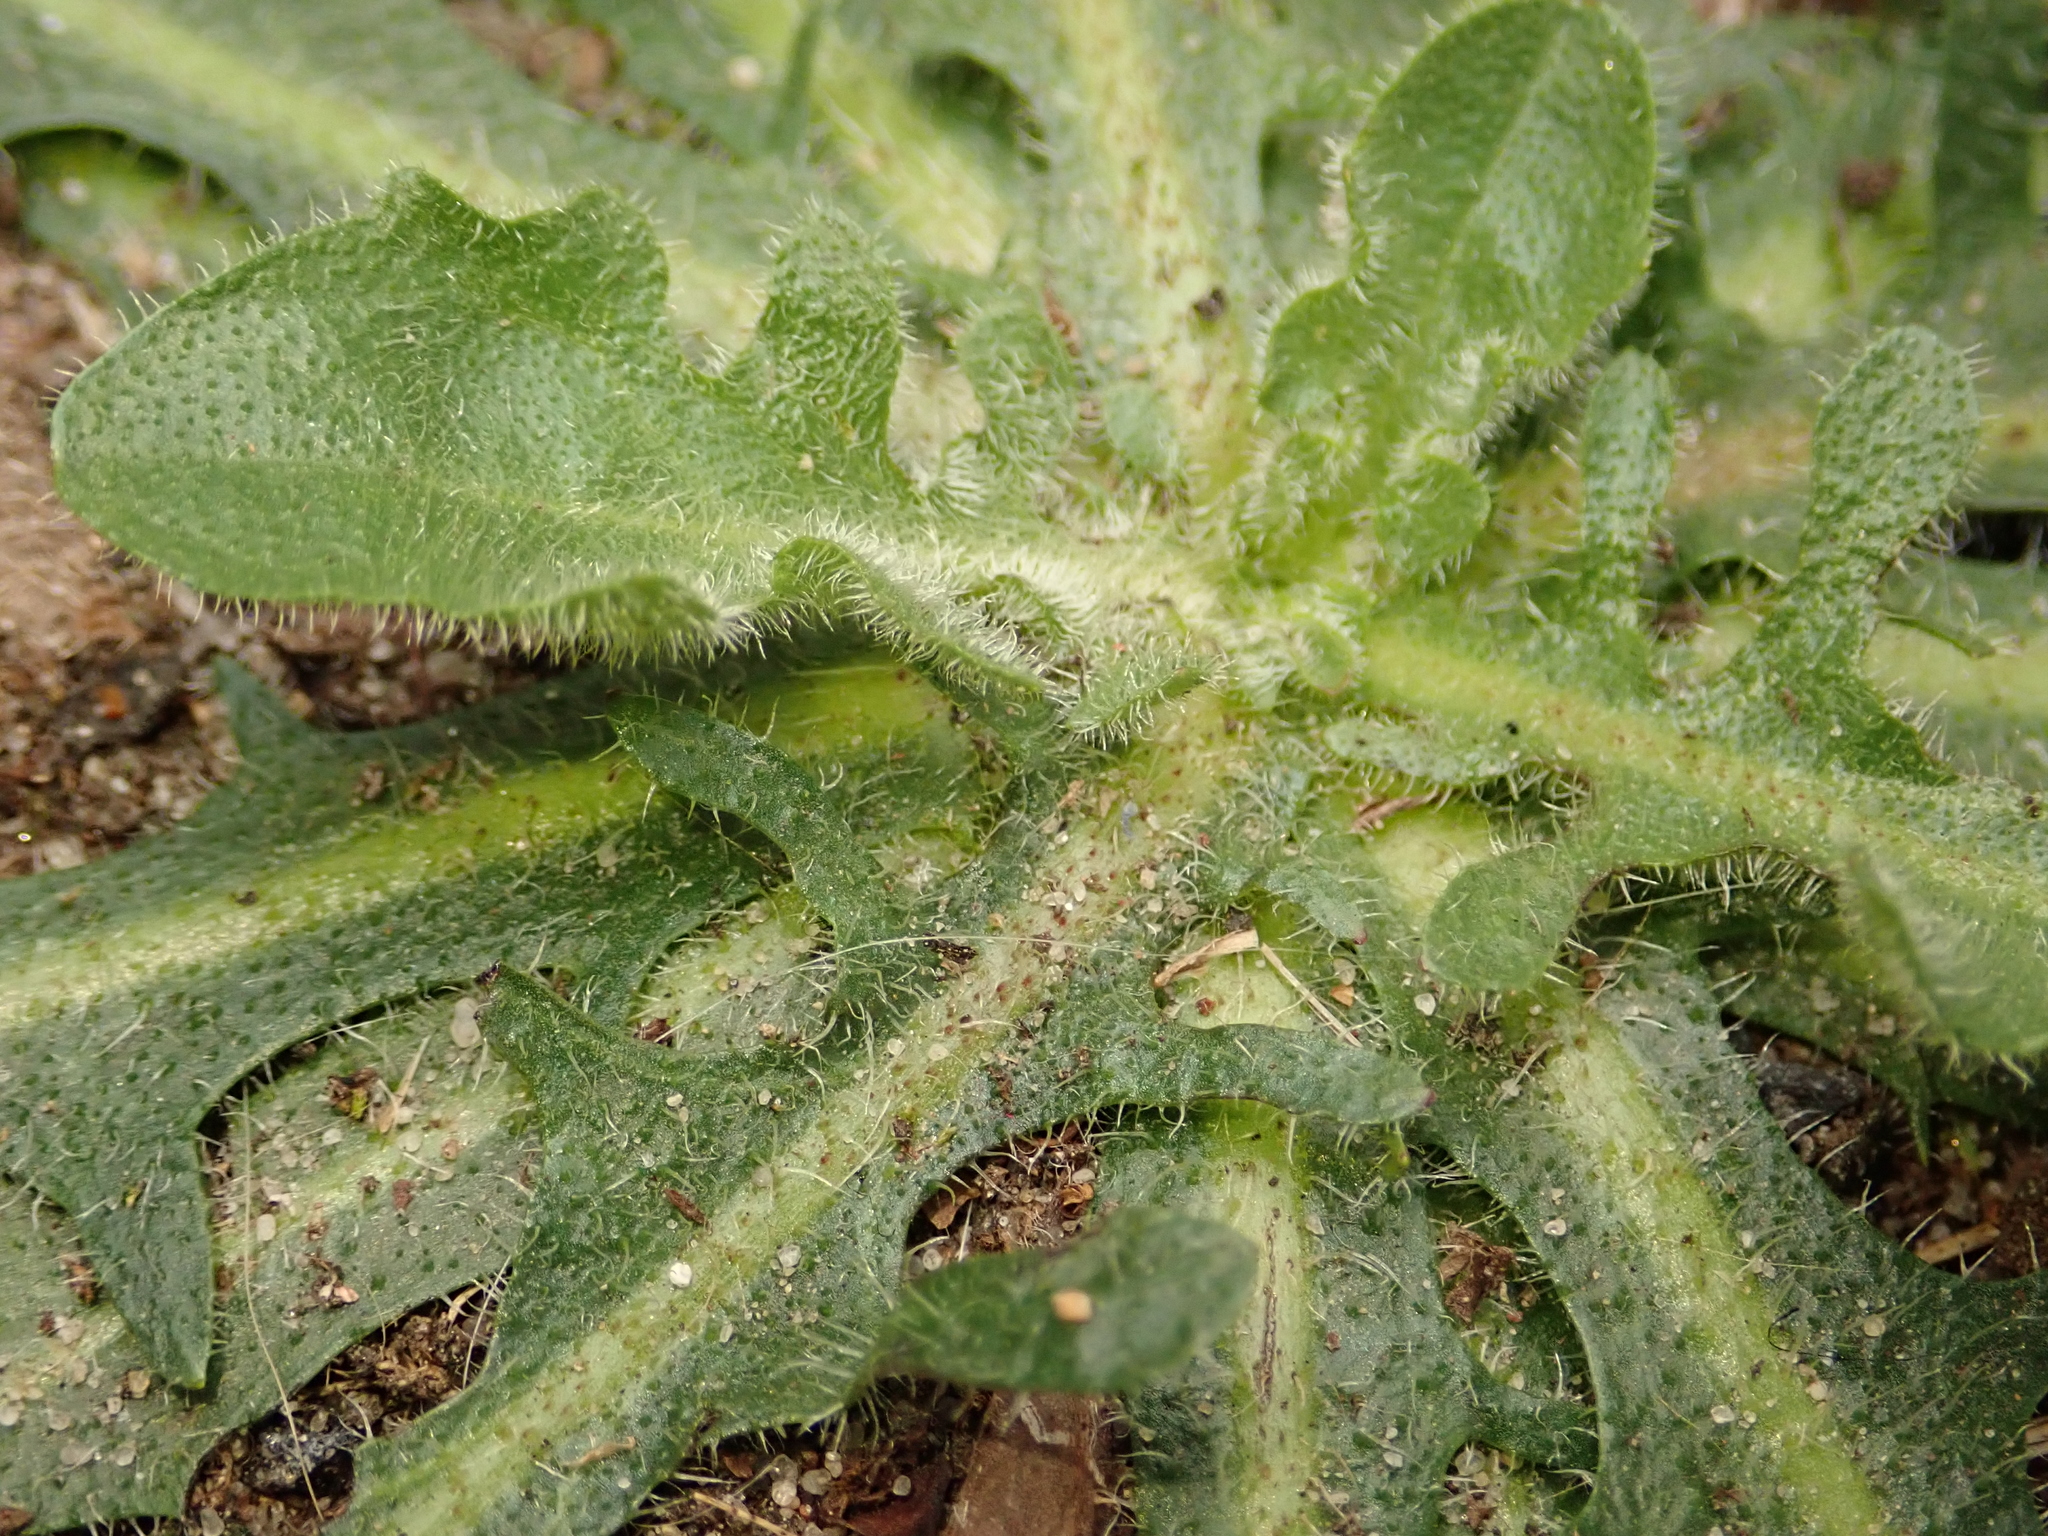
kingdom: Plantae
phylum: Tracheophyta
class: Magnoliopsida
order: Asterales
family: Asteraceae
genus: Hypochaeris
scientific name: Hypochaeris radicata
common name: Flatweed
